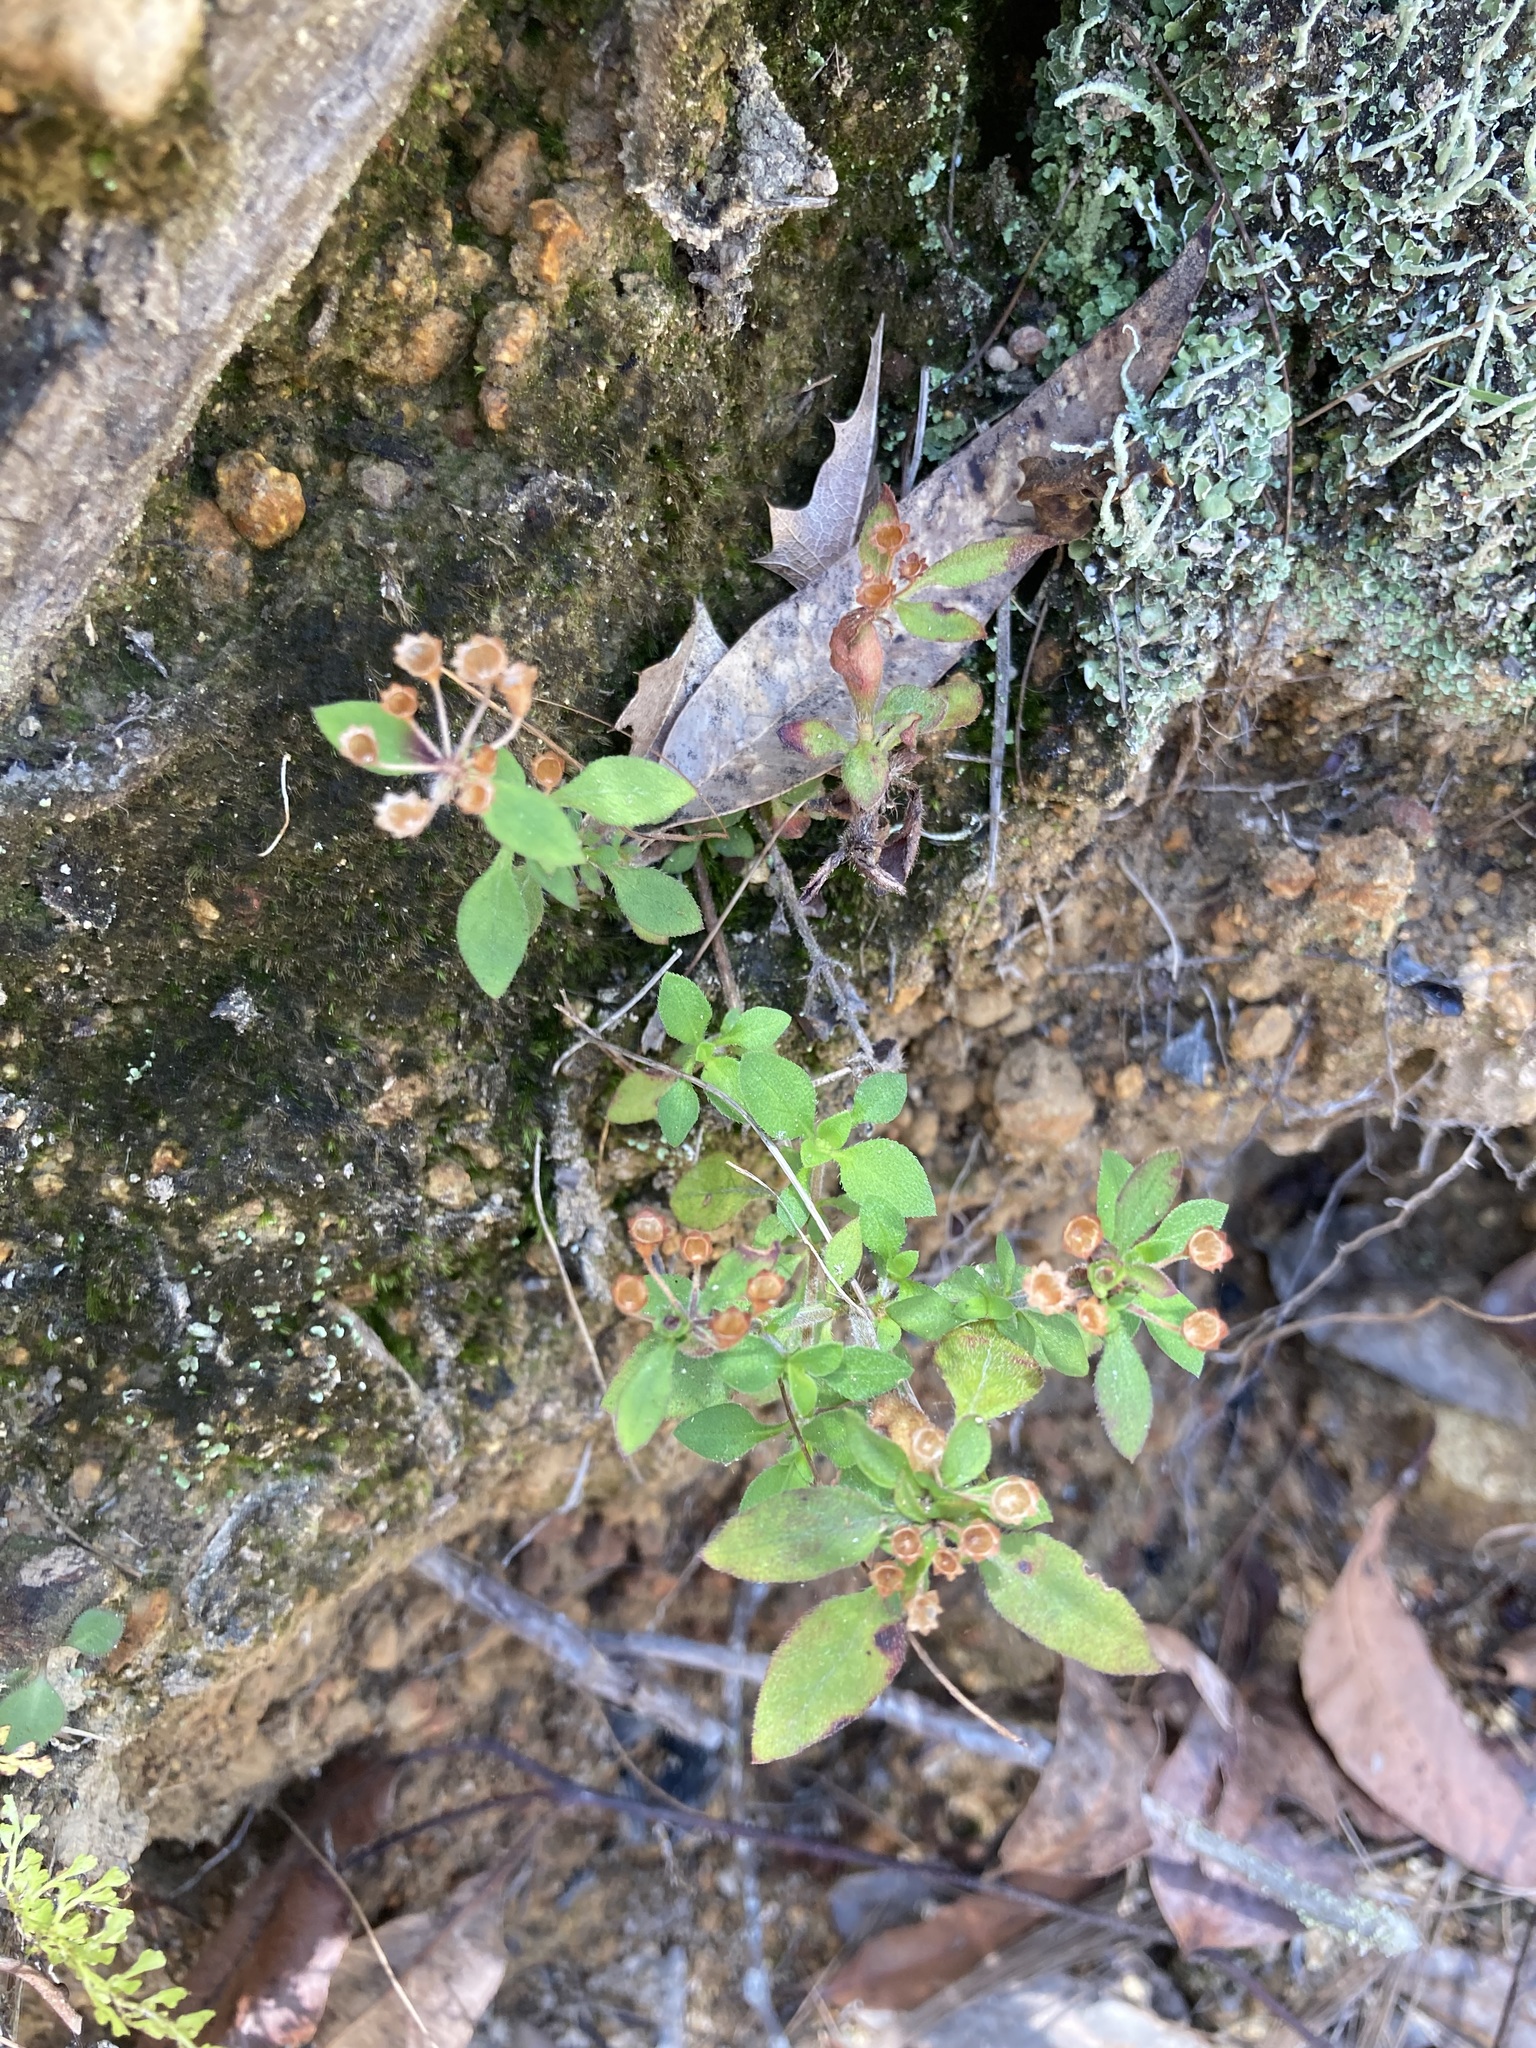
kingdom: Plantae
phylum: Tracheophyta
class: Magnoliopsida
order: Gentianales
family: Rubiaceae
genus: Pomax
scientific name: Pomax umbellata
